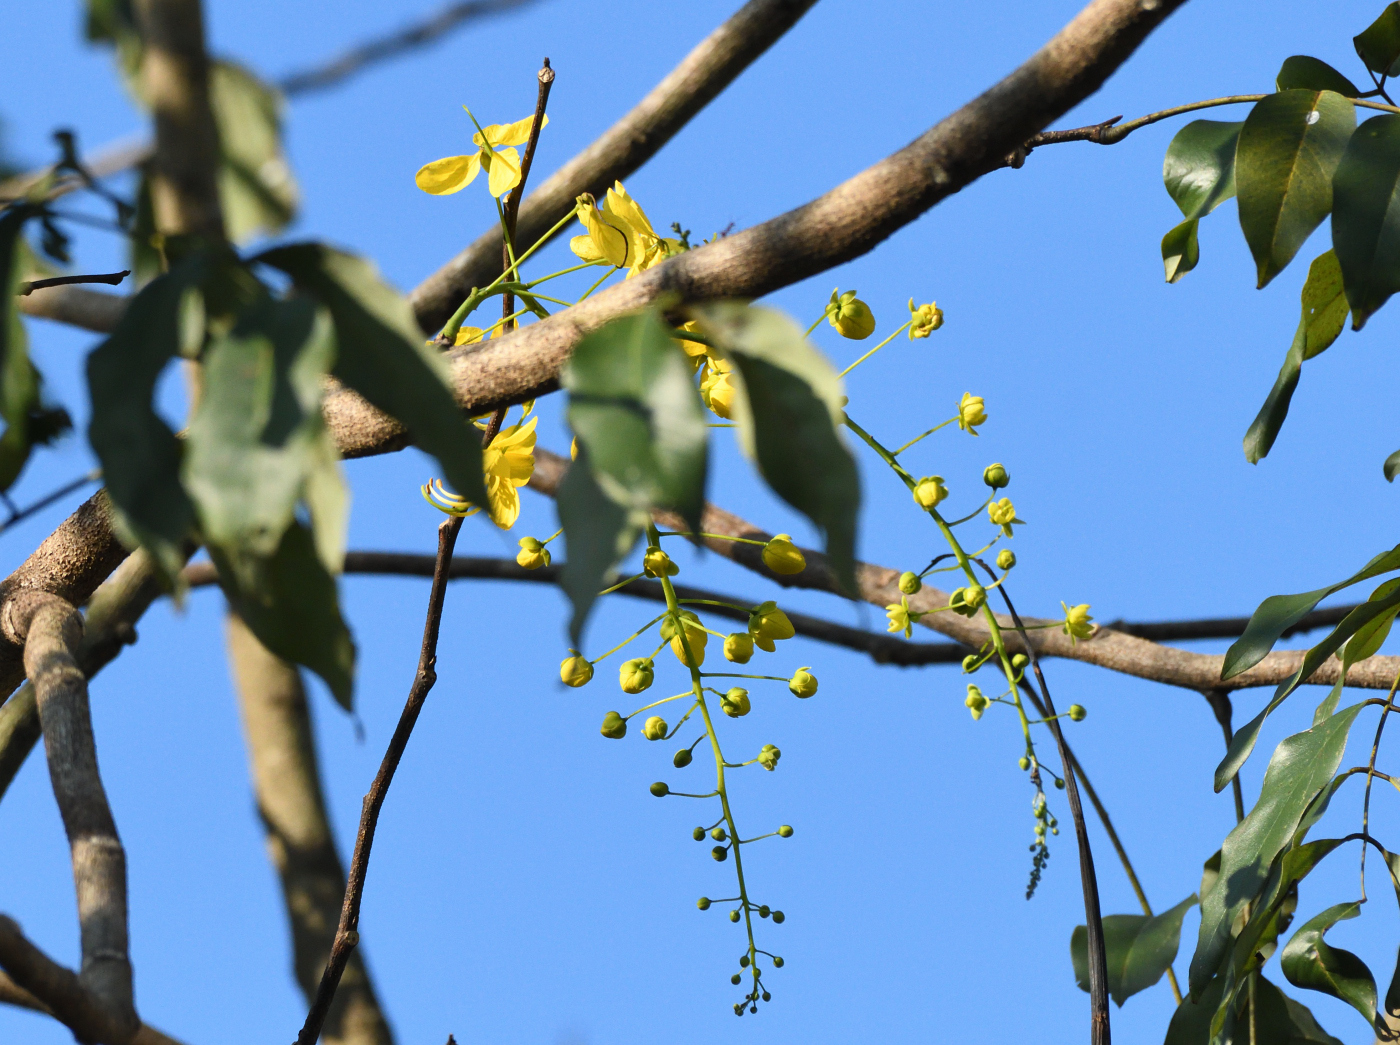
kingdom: Plantae
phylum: Tracheophyta
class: Magnoliopsida
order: Fabales
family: Fabaceae
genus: Cassia
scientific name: Cassia fistula
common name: Golden shower
